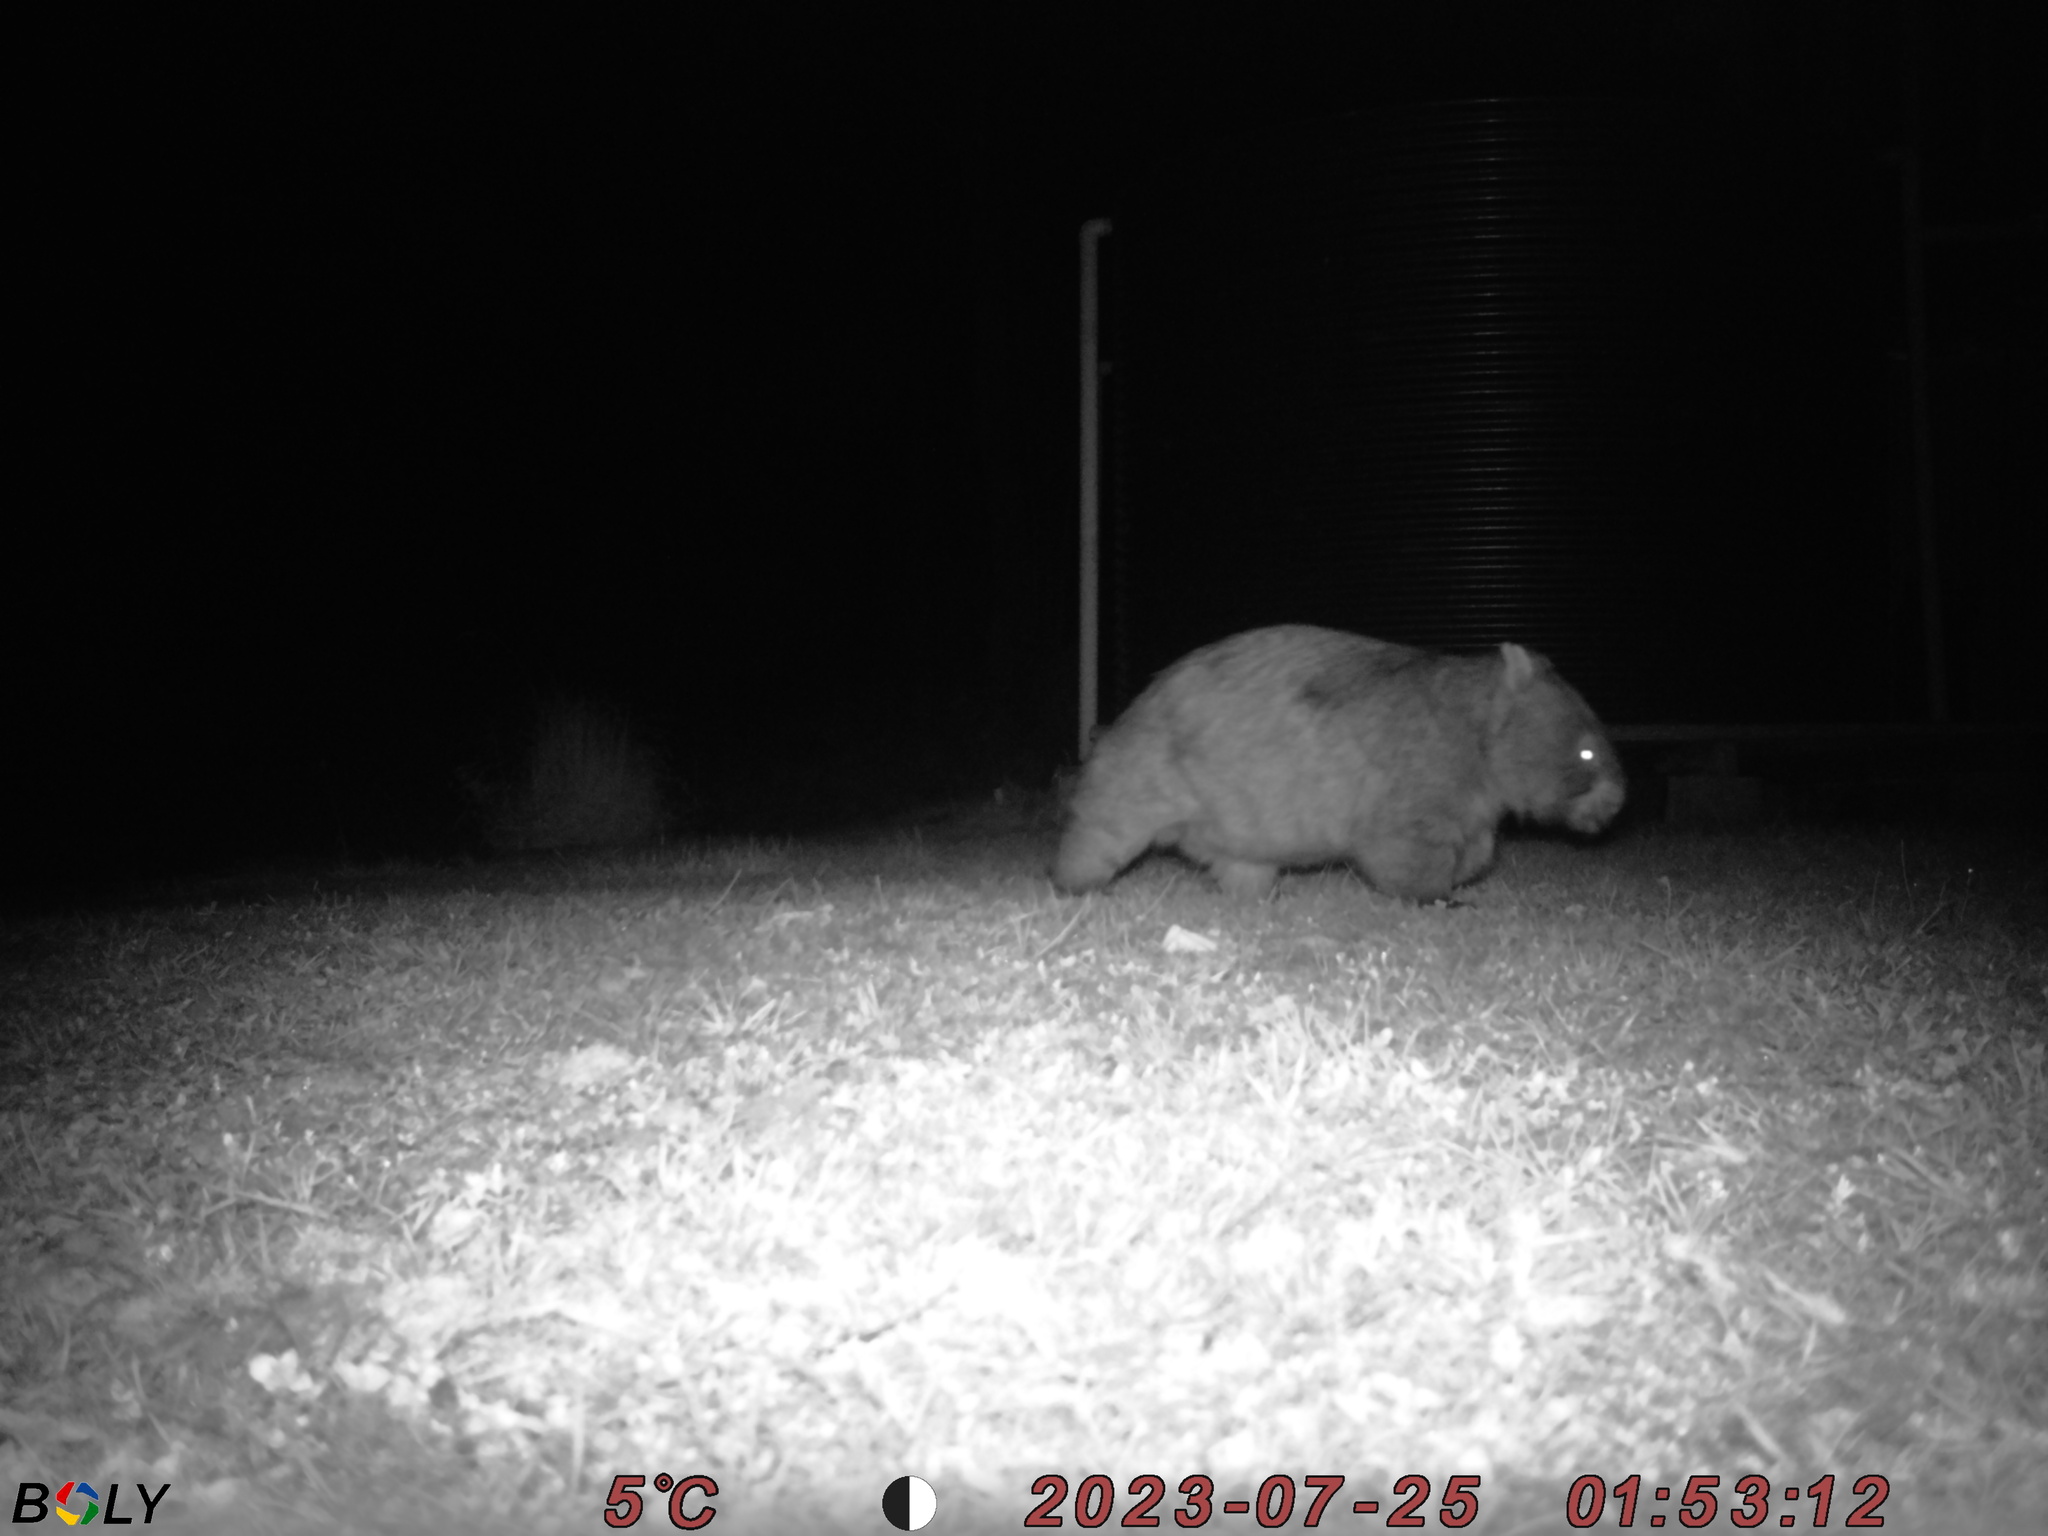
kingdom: Animalia
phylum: Chordata
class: Mammalia
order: Diprotodontia
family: Vombatidae
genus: Vombatus
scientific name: Vombatus ursinus
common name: Common wombat
